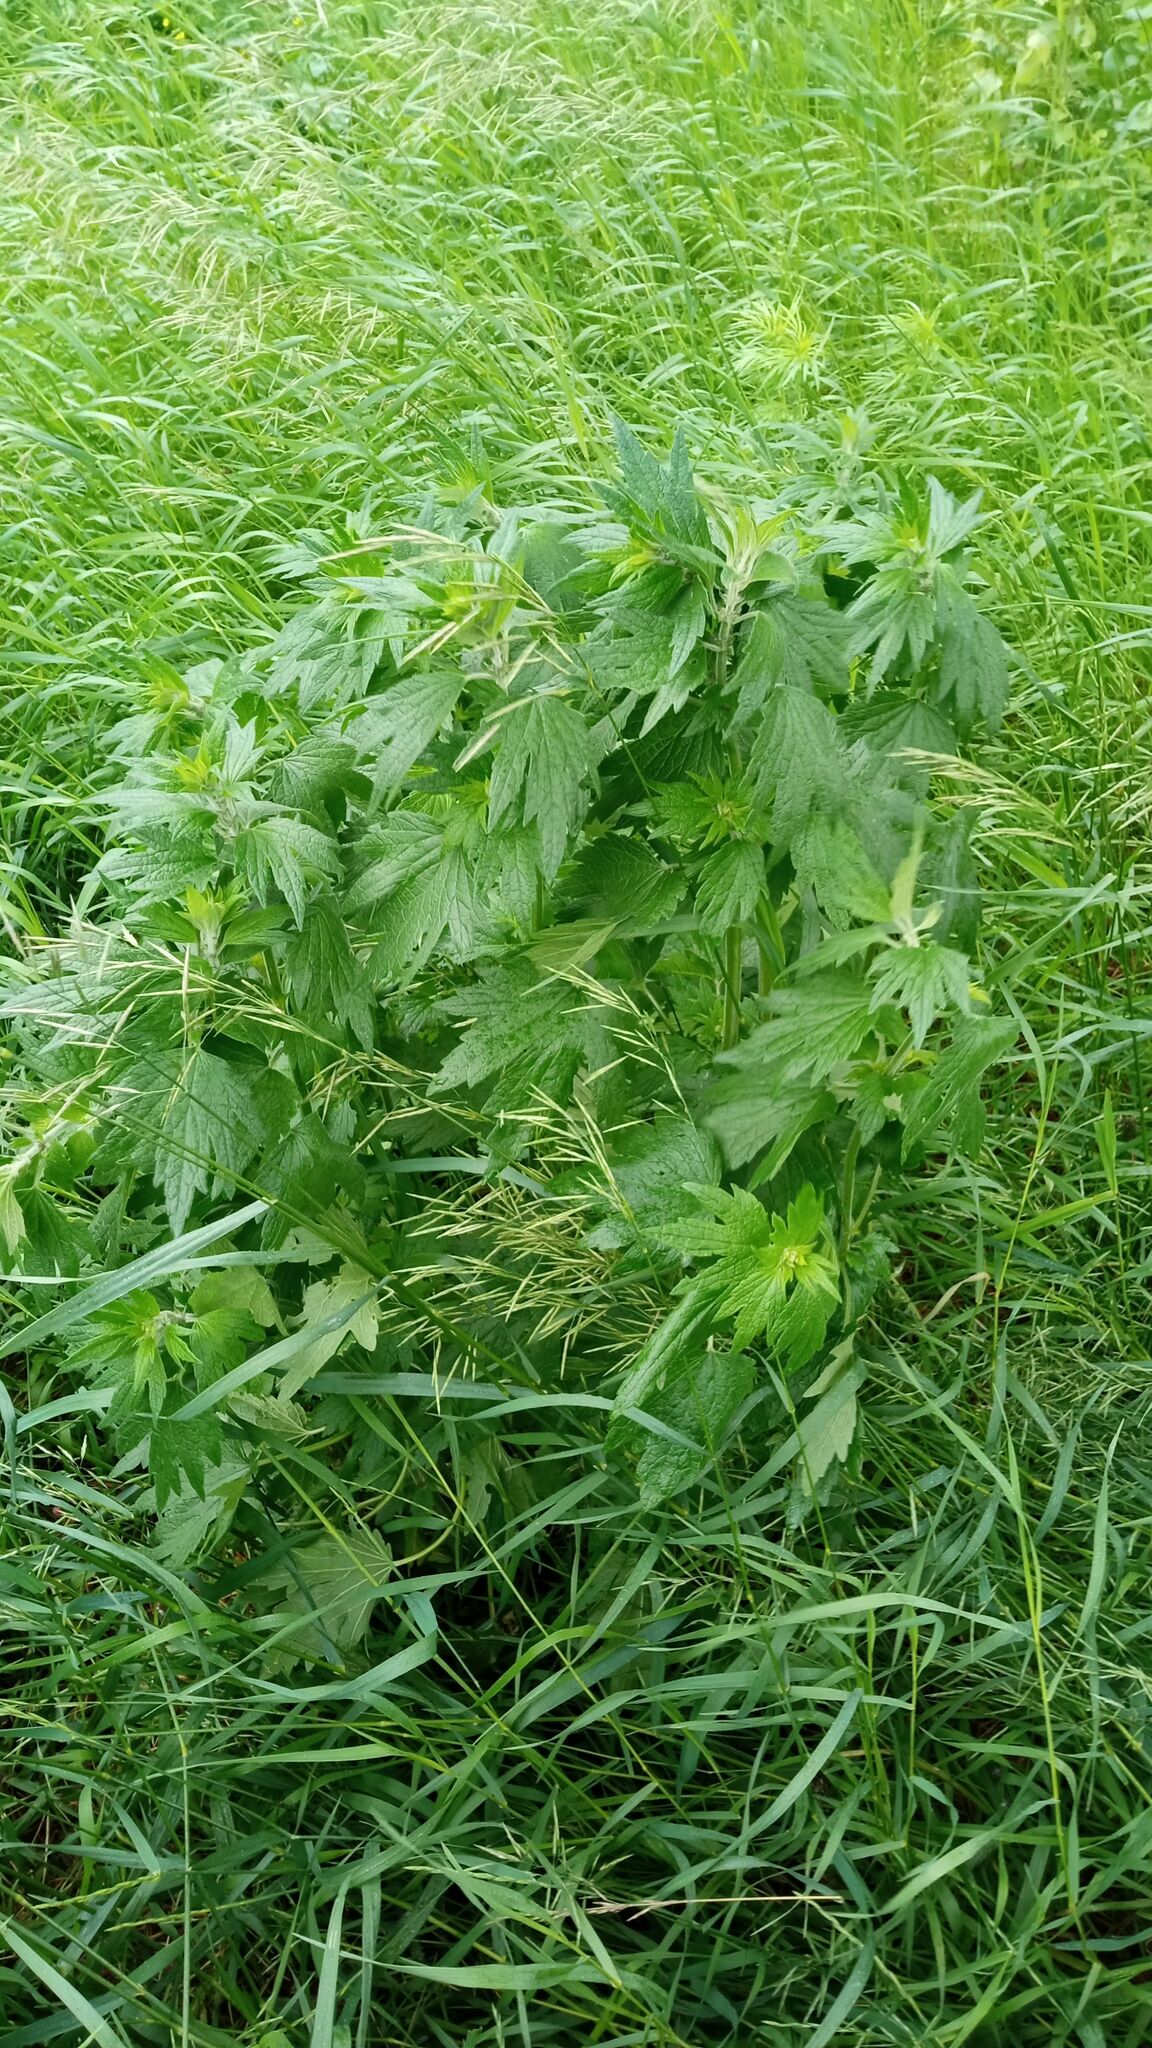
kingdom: Plantae
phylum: Tracheophyta
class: Magnoliopsida
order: Lamiales
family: Lamiaceae
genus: Leonurus
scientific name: Leonurus quinquelobatus
